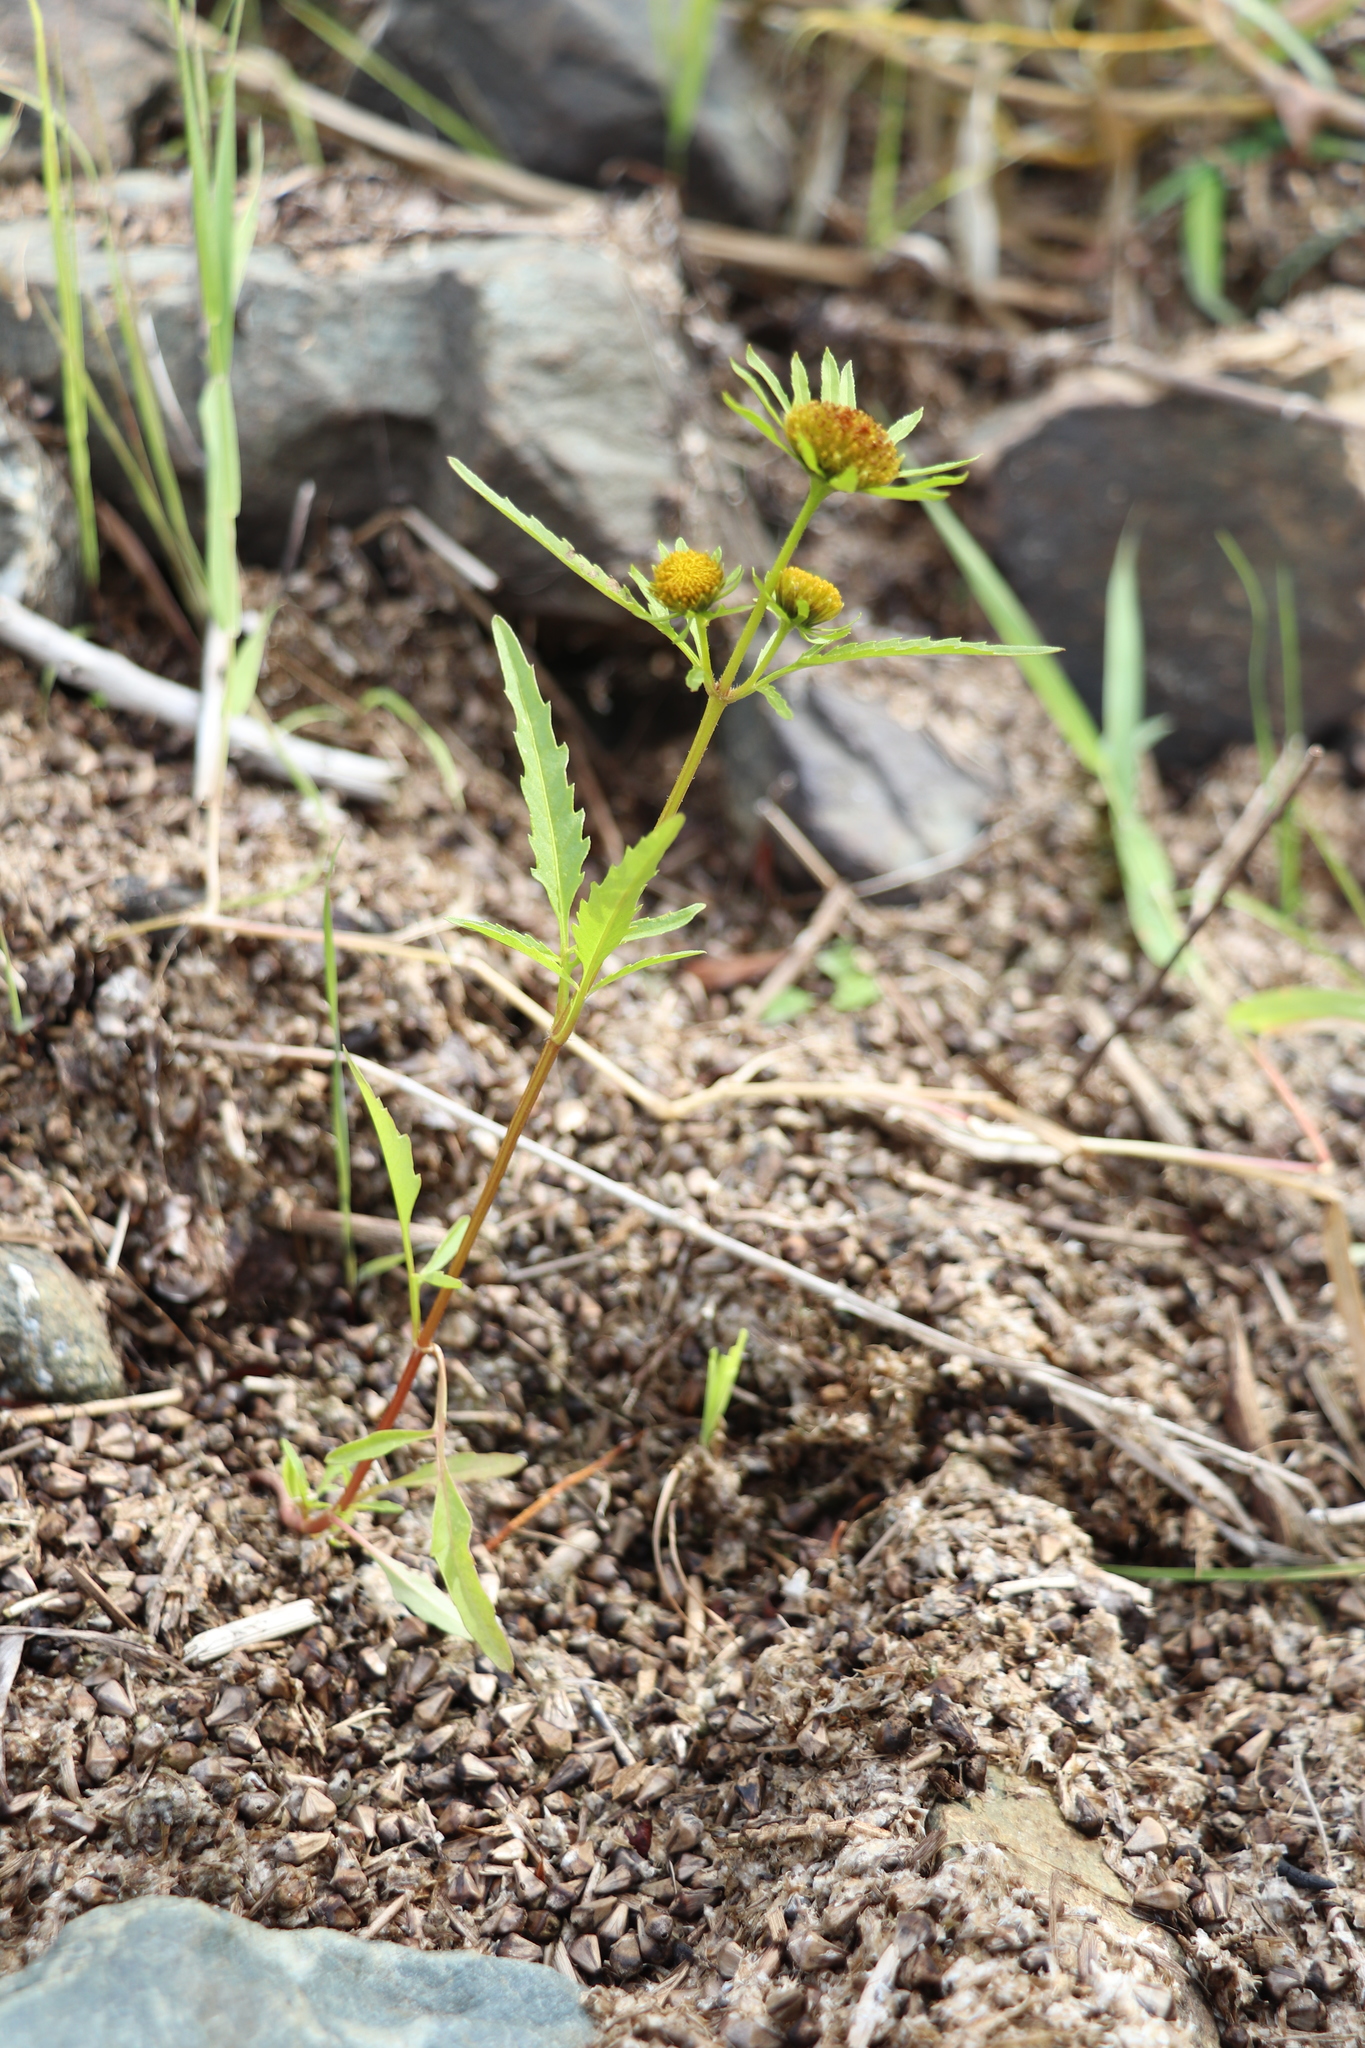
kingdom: Plantae
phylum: Tracheophyta
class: Magnoliopsida
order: Asterales
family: Asteraceae
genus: Bidens
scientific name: Bidens radiata
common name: Radiating bur-marigold
